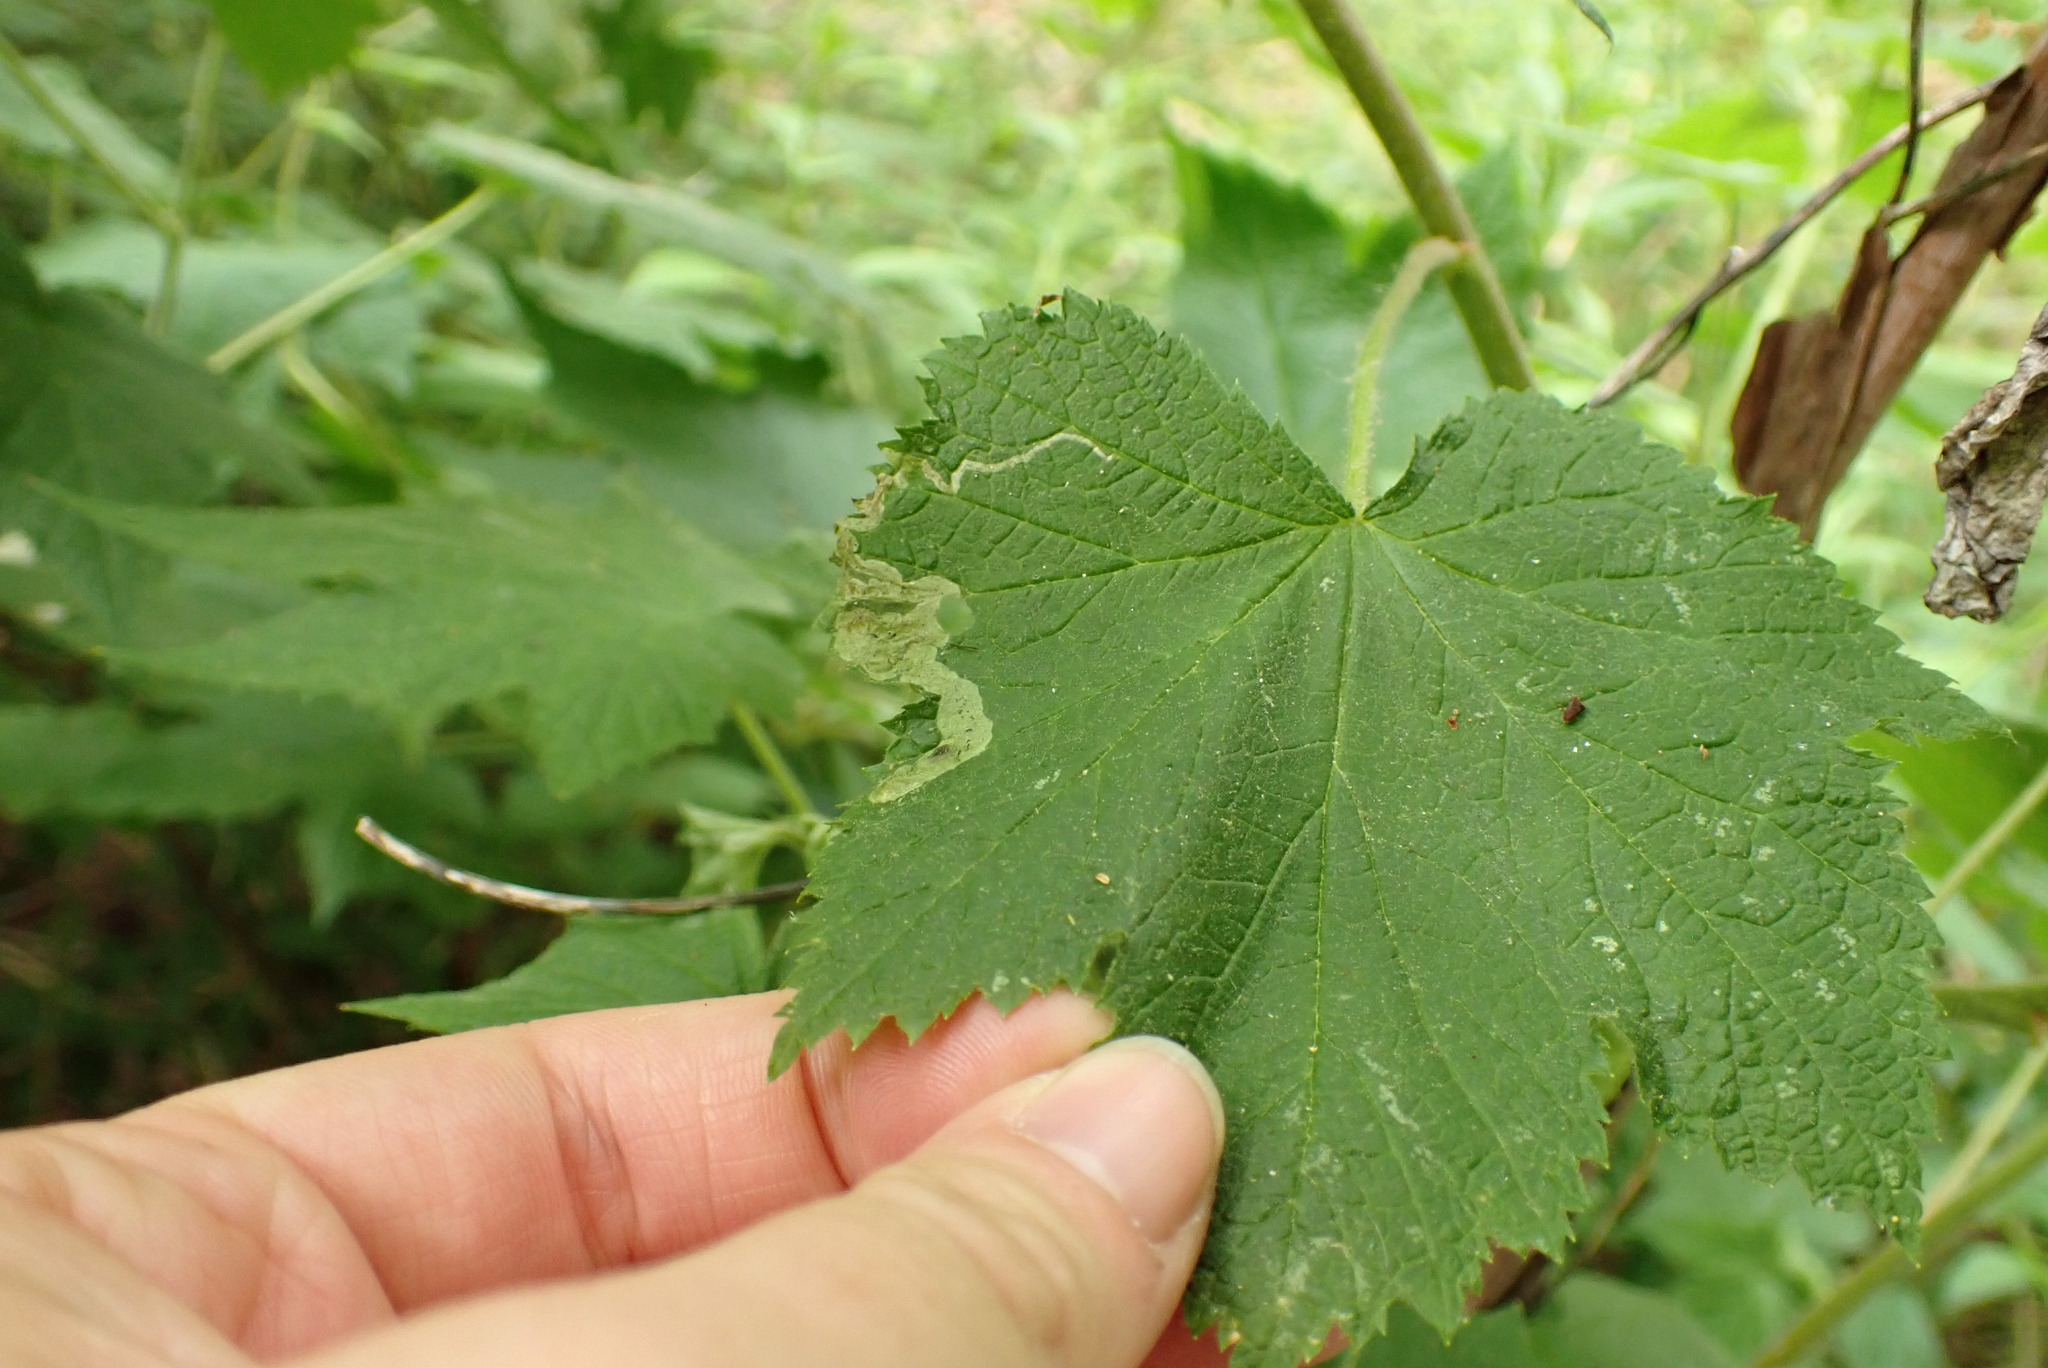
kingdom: Animalia
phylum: Arthropoda
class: Insecta
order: Diptera
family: Agromyzidae
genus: Agromyza
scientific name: Agromyza vockerothi
